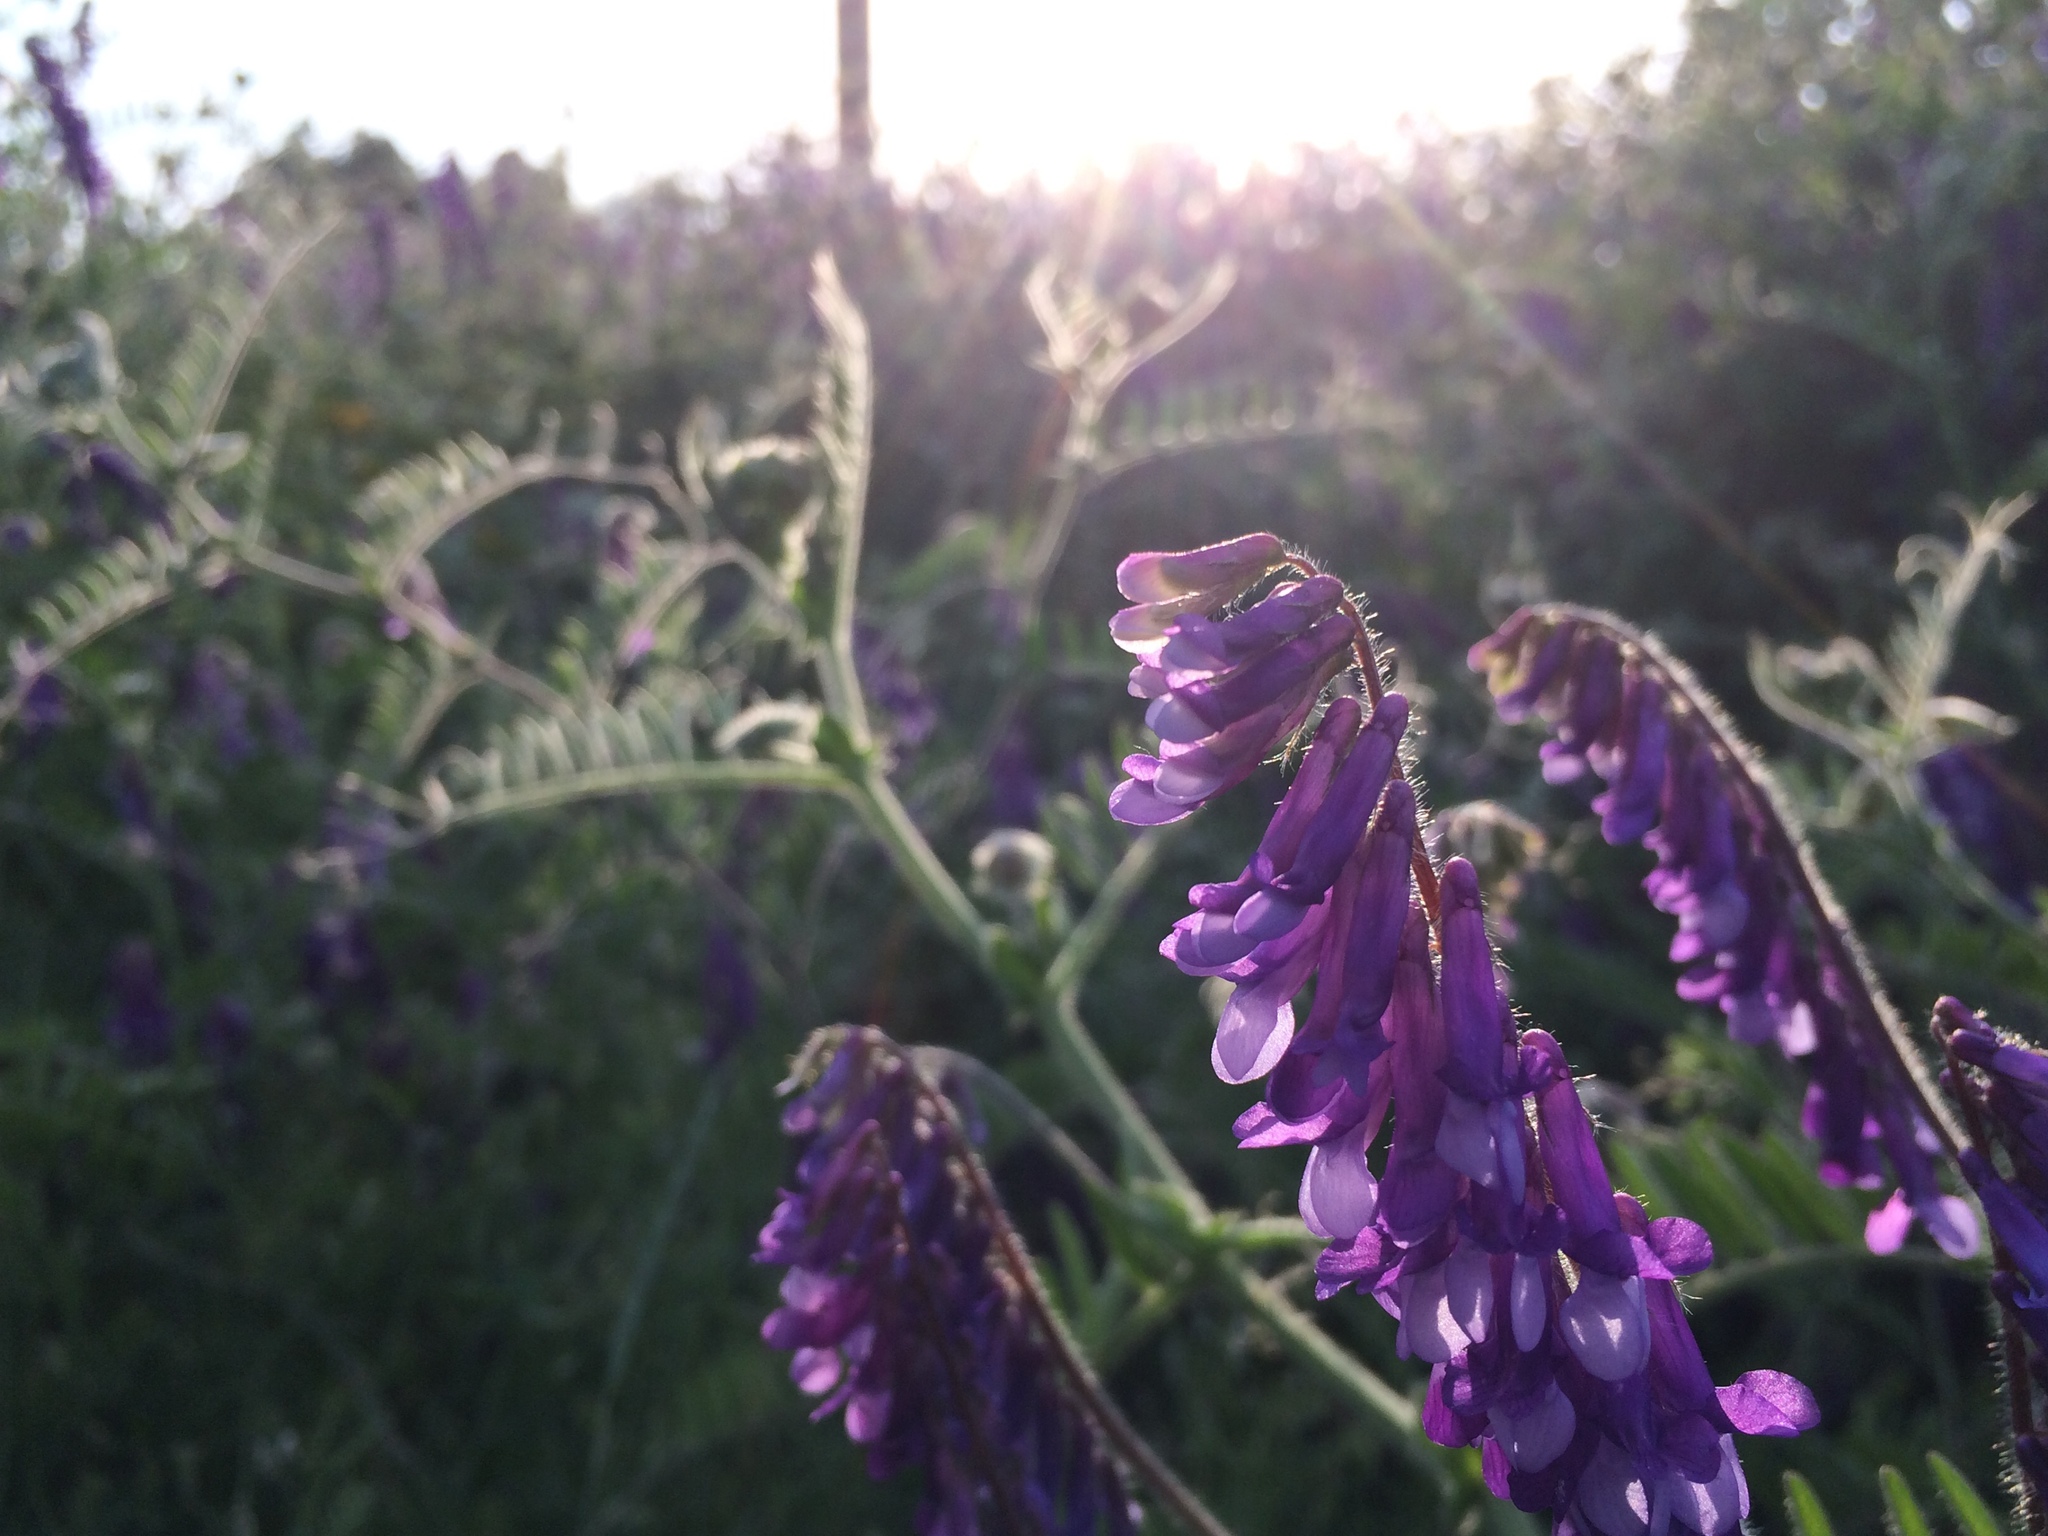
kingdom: Plantae
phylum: Tracheophyta
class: Magnoliopsida
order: Fabales
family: Fabaceae
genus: Vicia
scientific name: Vicia villosa
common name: Fodder vetch
